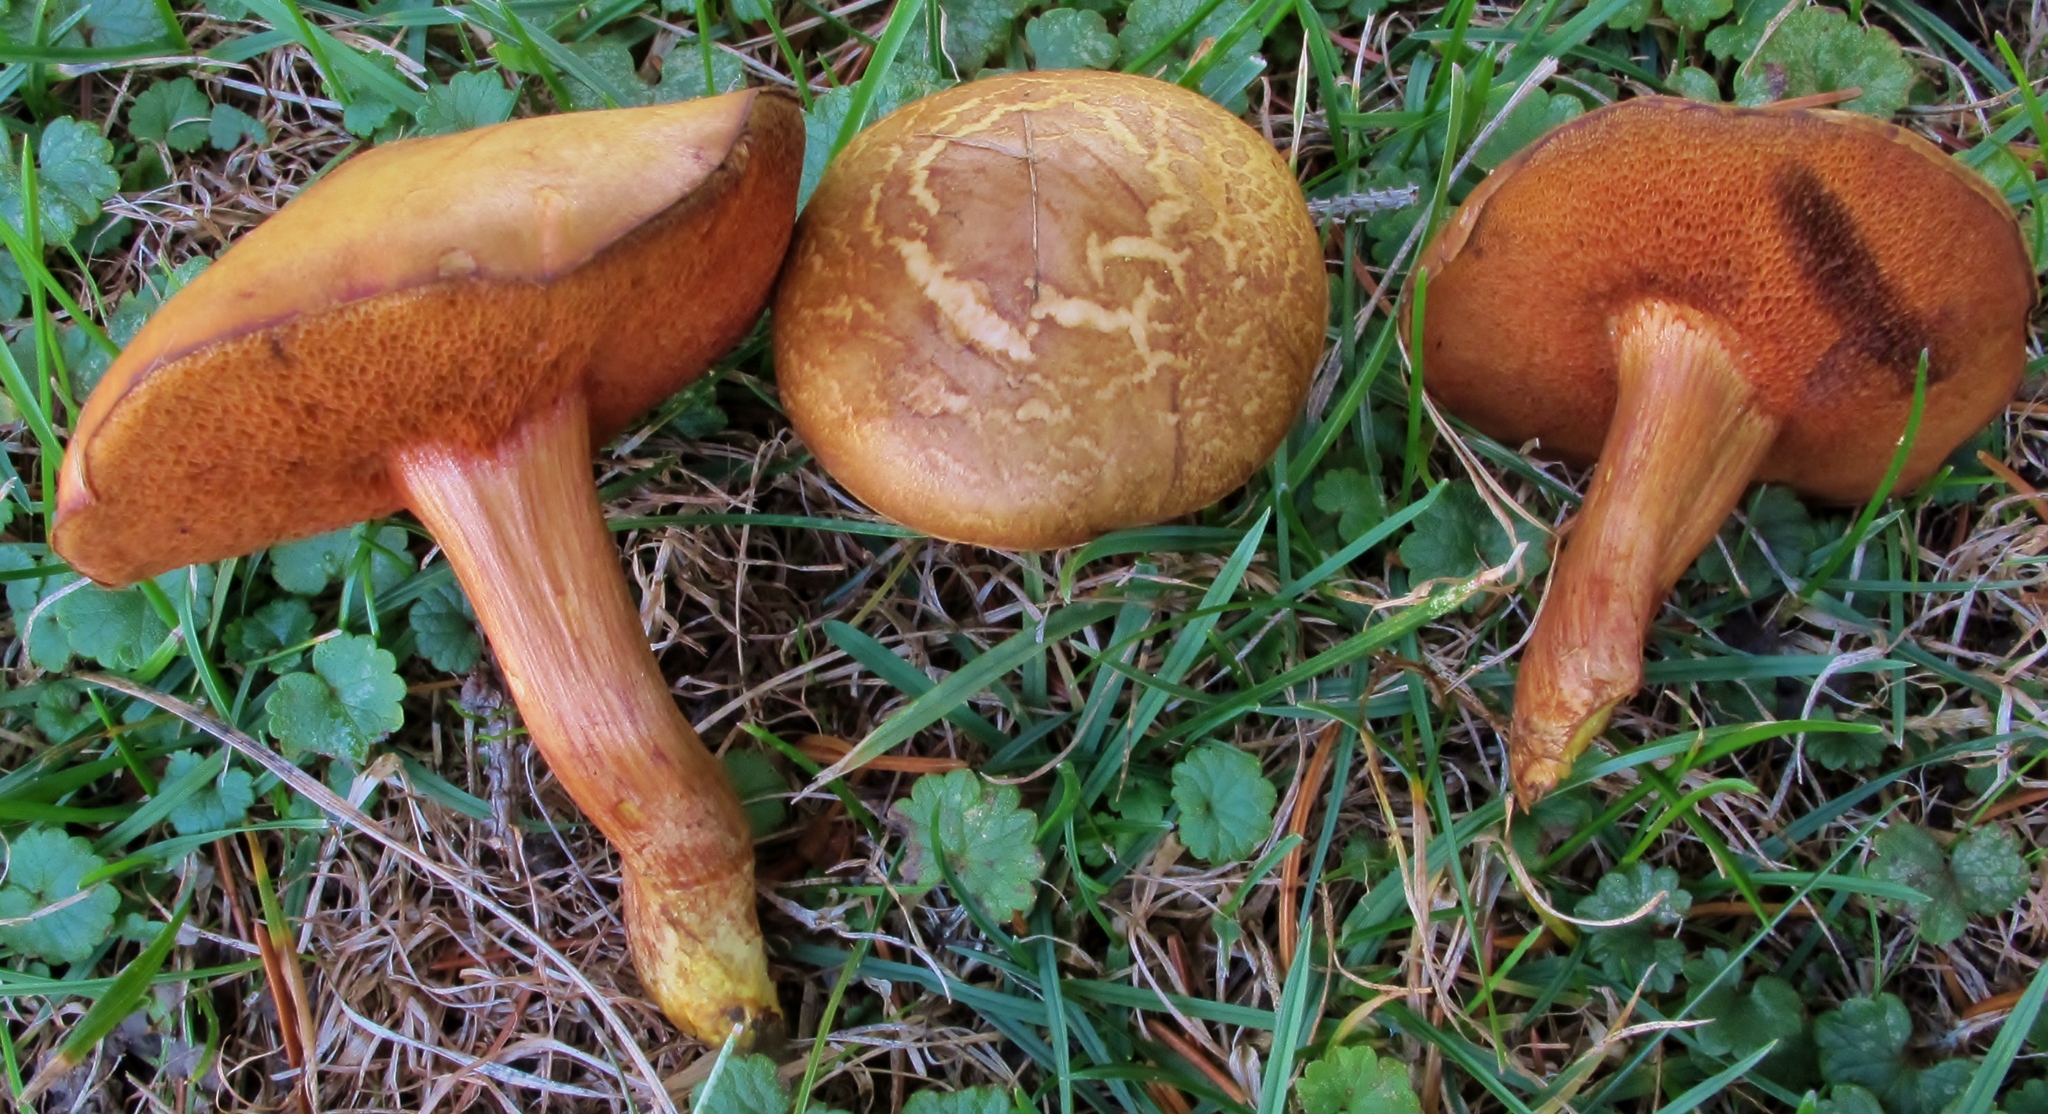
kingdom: Fungi
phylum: Basidiomycota
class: Agaricomycetes
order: Boletales
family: Boletaceae
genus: Chalciporus
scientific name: Chalciporus piperatoides
